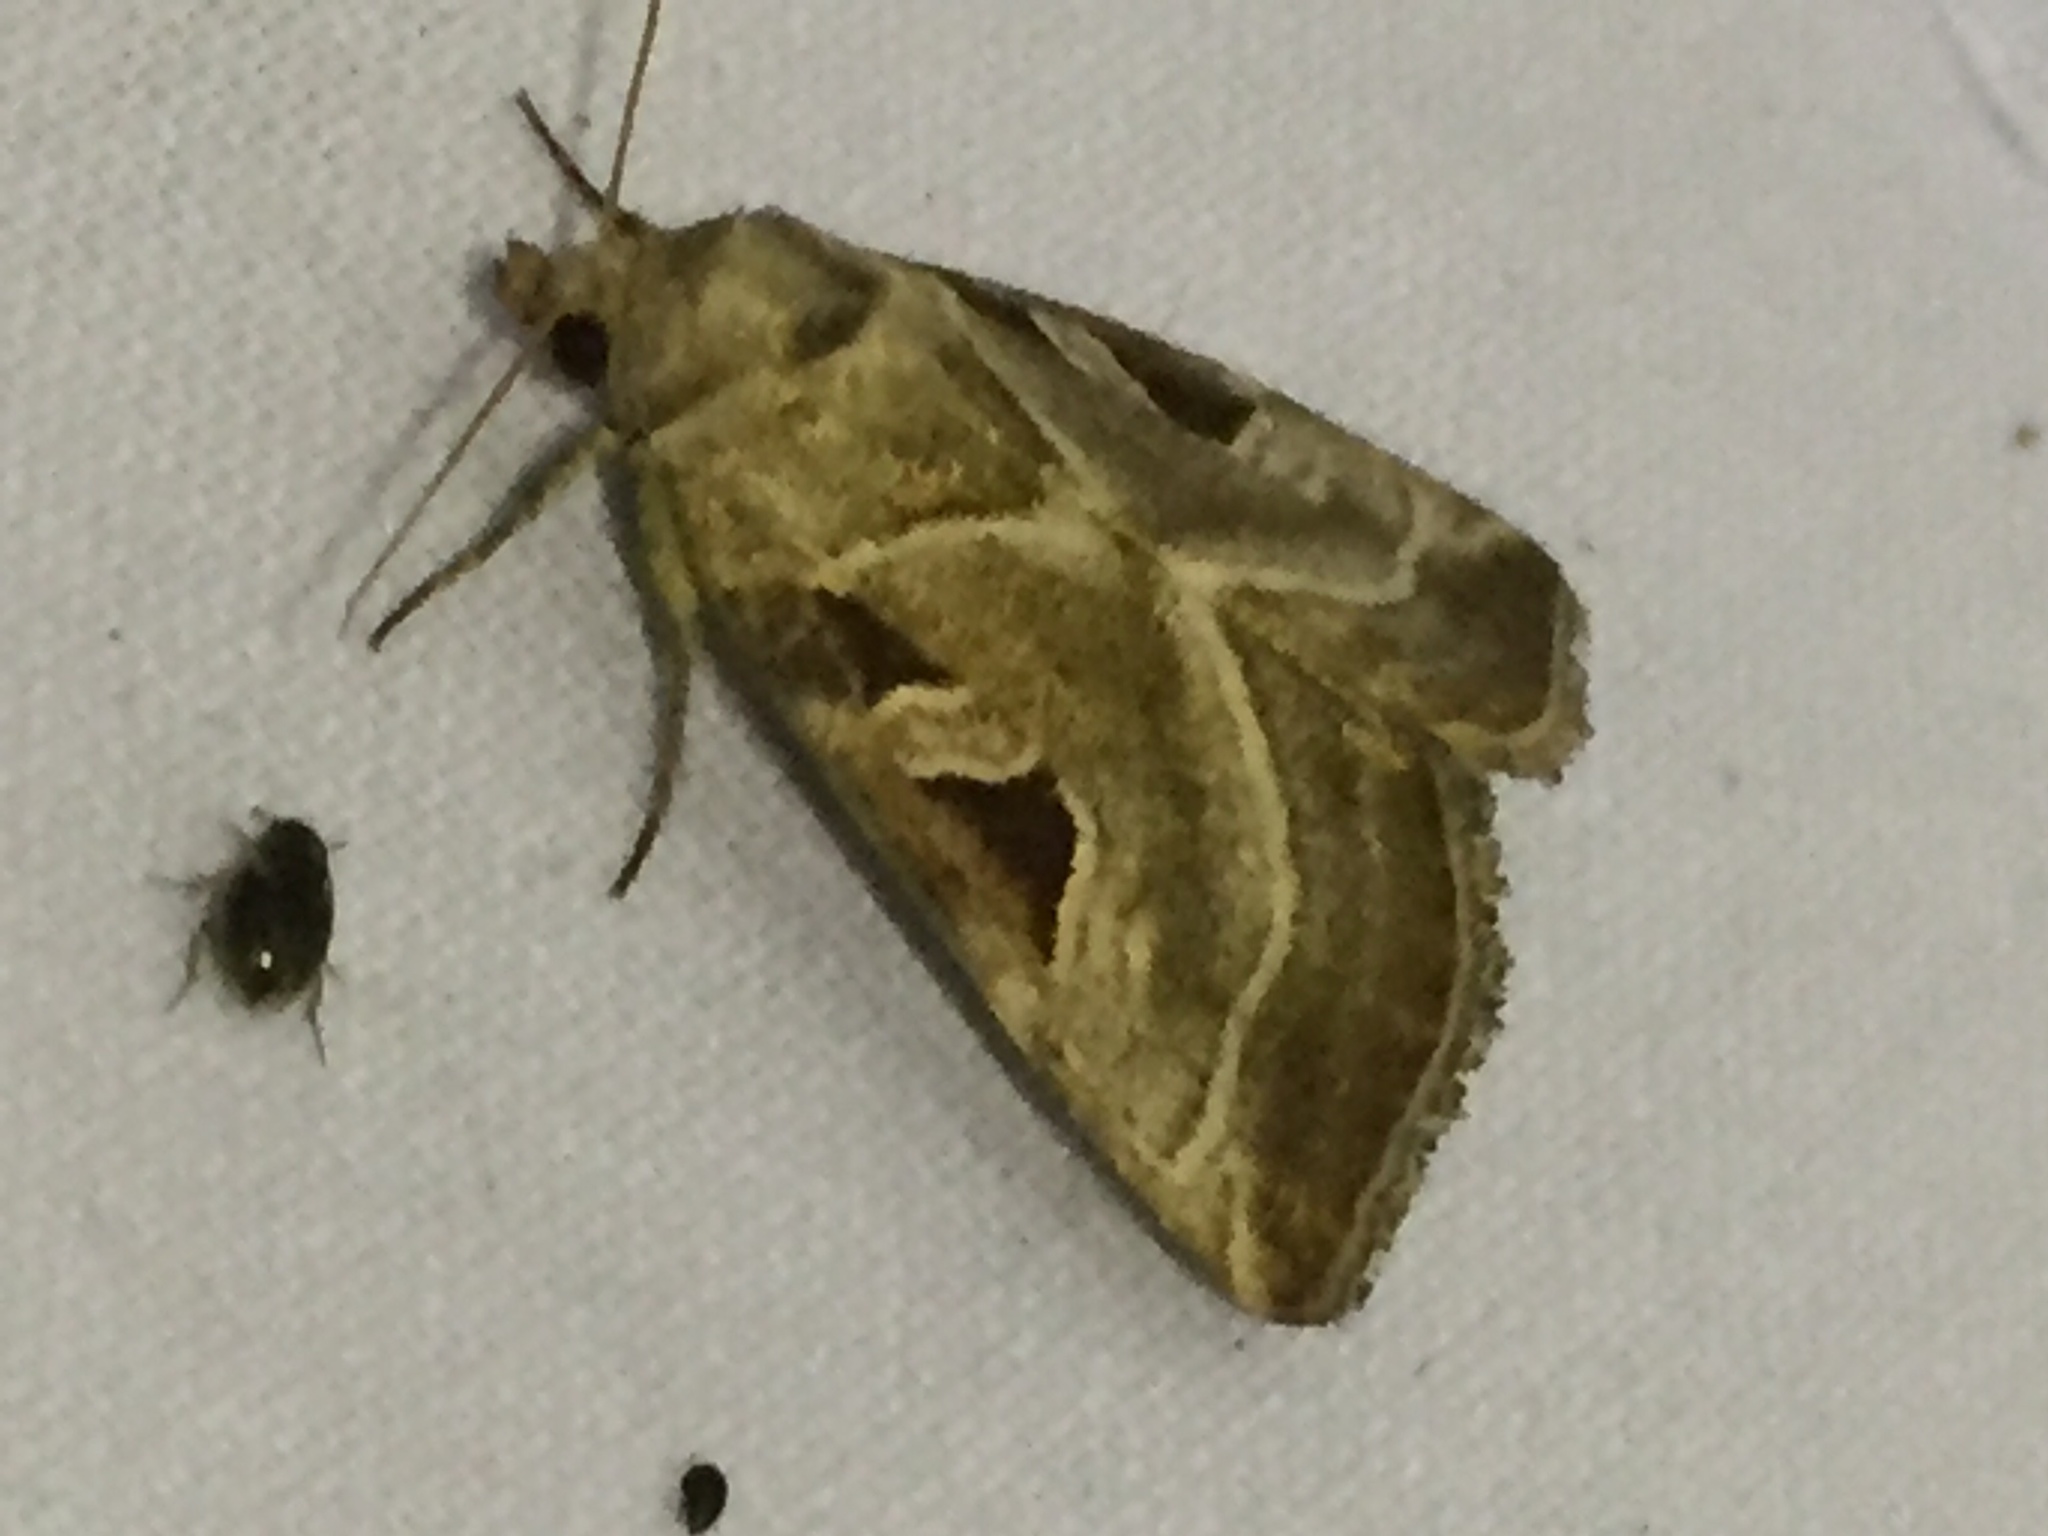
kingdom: Animalia
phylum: Arthropoda
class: Insecta
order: Lepidoptera
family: Noctuidae
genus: Eucarta
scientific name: Eucarta virgo
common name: Silvery gem
